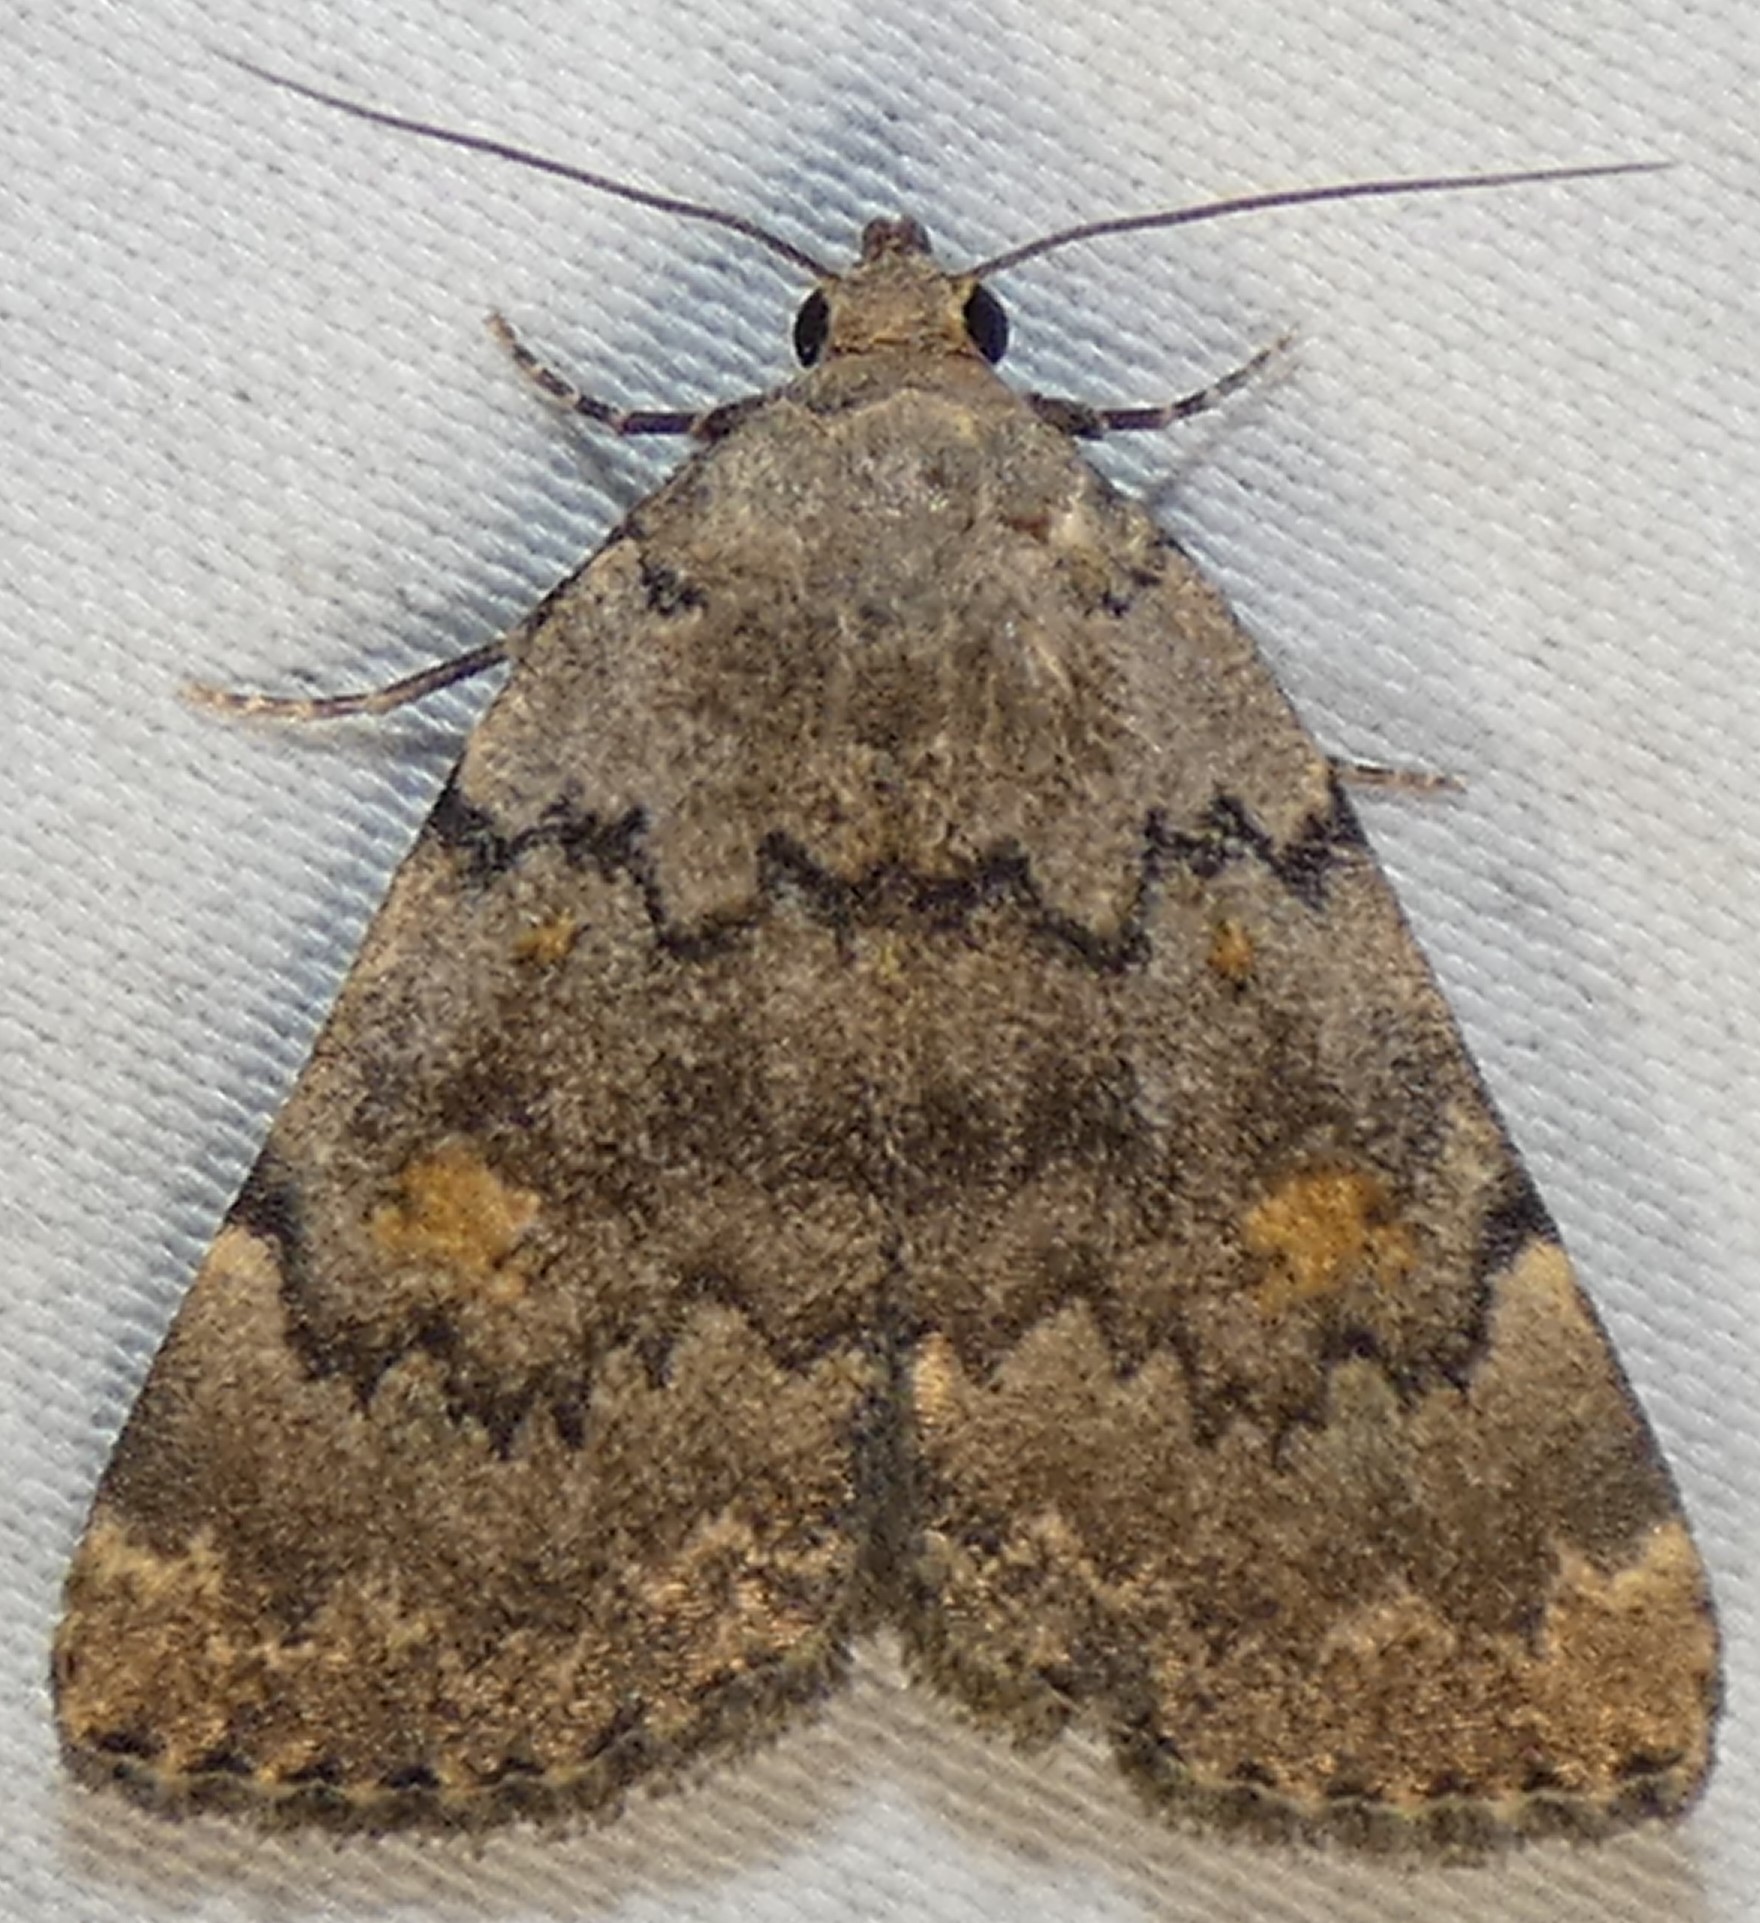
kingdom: Animalia
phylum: Arthropoda
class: Insecta
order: Lepidoptera
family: Erebidae
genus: Idia
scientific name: Idia aemula
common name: Common idia moth
